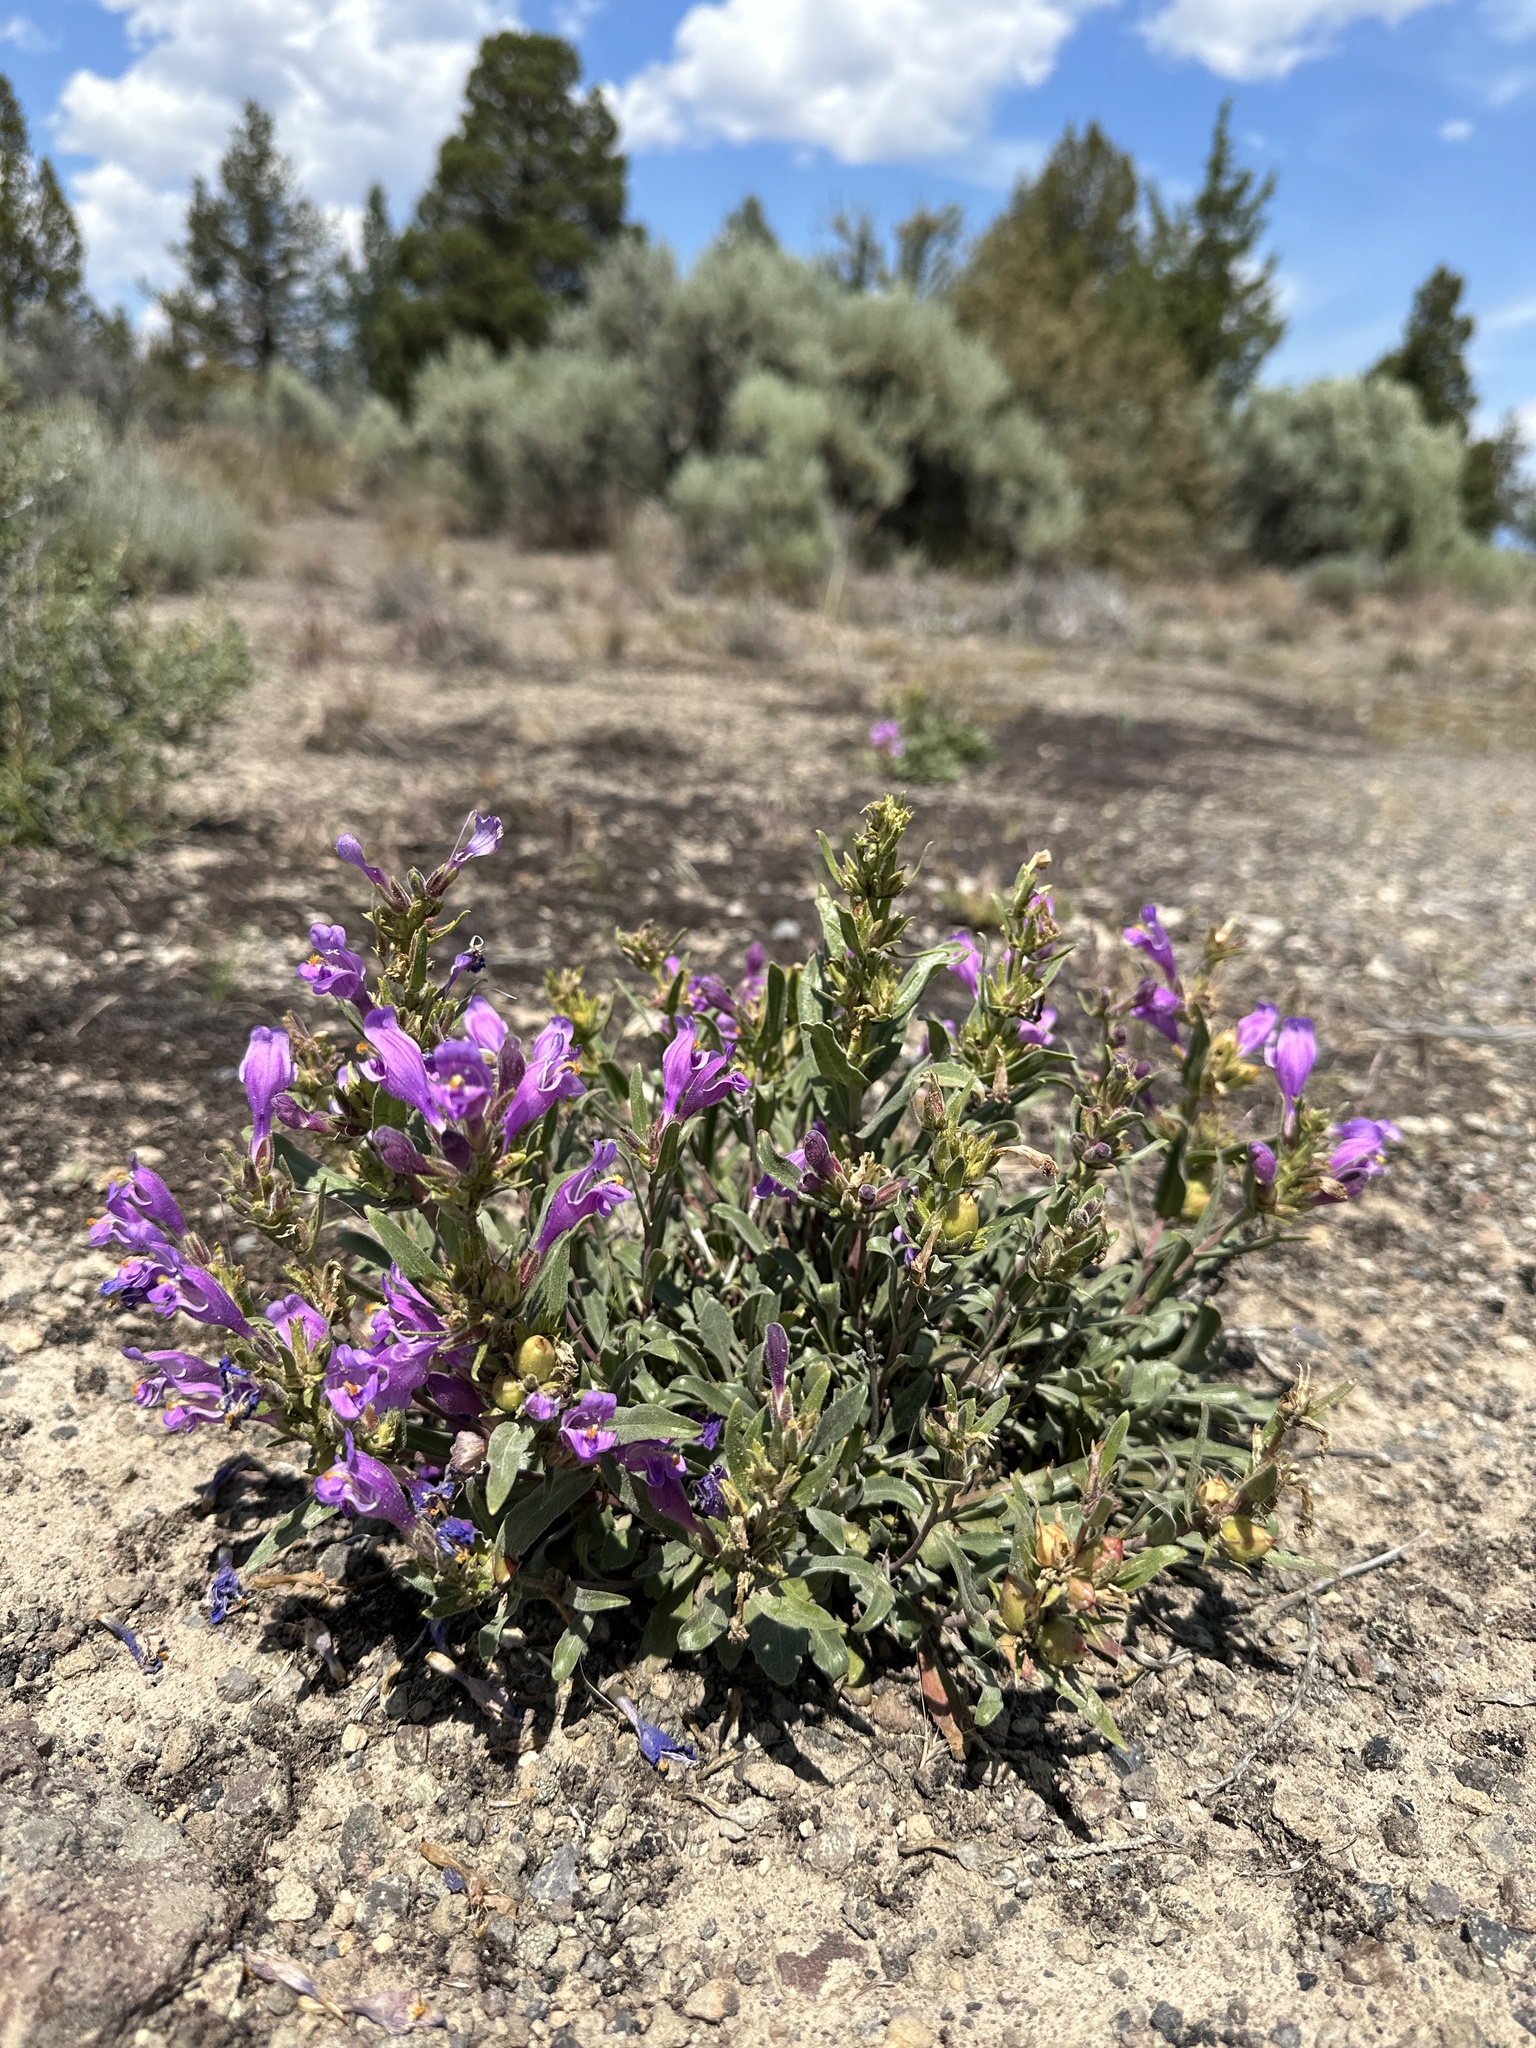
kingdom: Plantae
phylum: Tracheophyta
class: Magnoliopsida
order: Lamiales
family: Plantaginaceae
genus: Penstemon
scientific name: Penstemon janishiae
